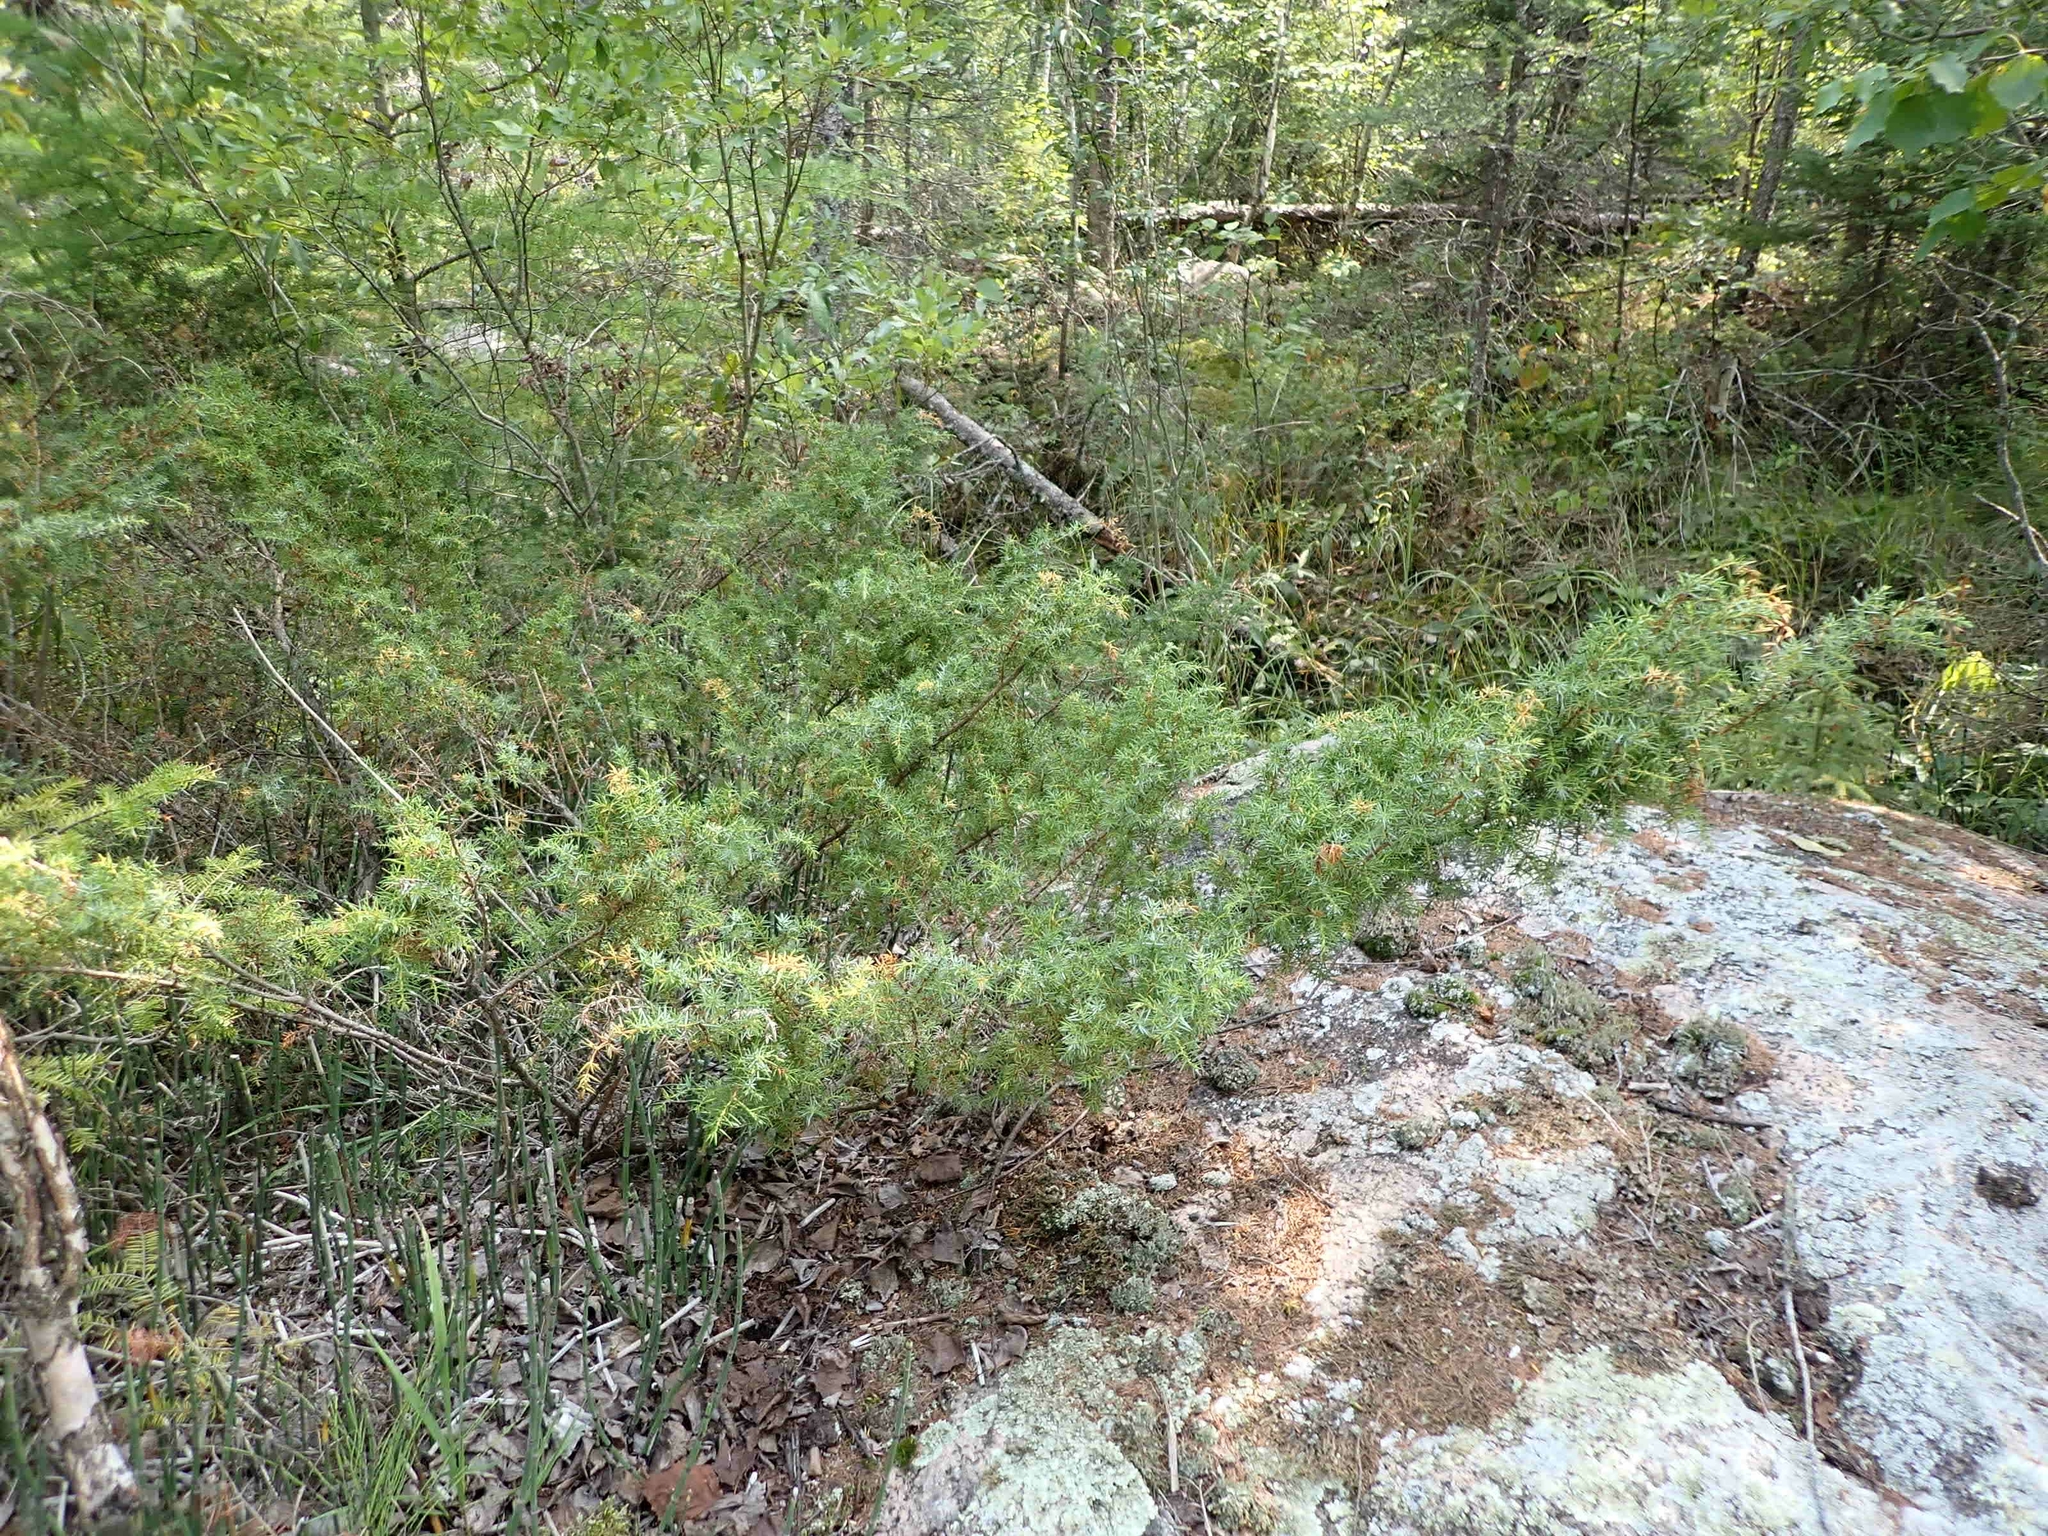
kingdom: Plantae
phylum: Tracheophyta
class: Pinopsida
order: Pinales
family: Cupressaceae
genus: Juniperus
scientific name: Juniperus communis
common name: Common juniper
